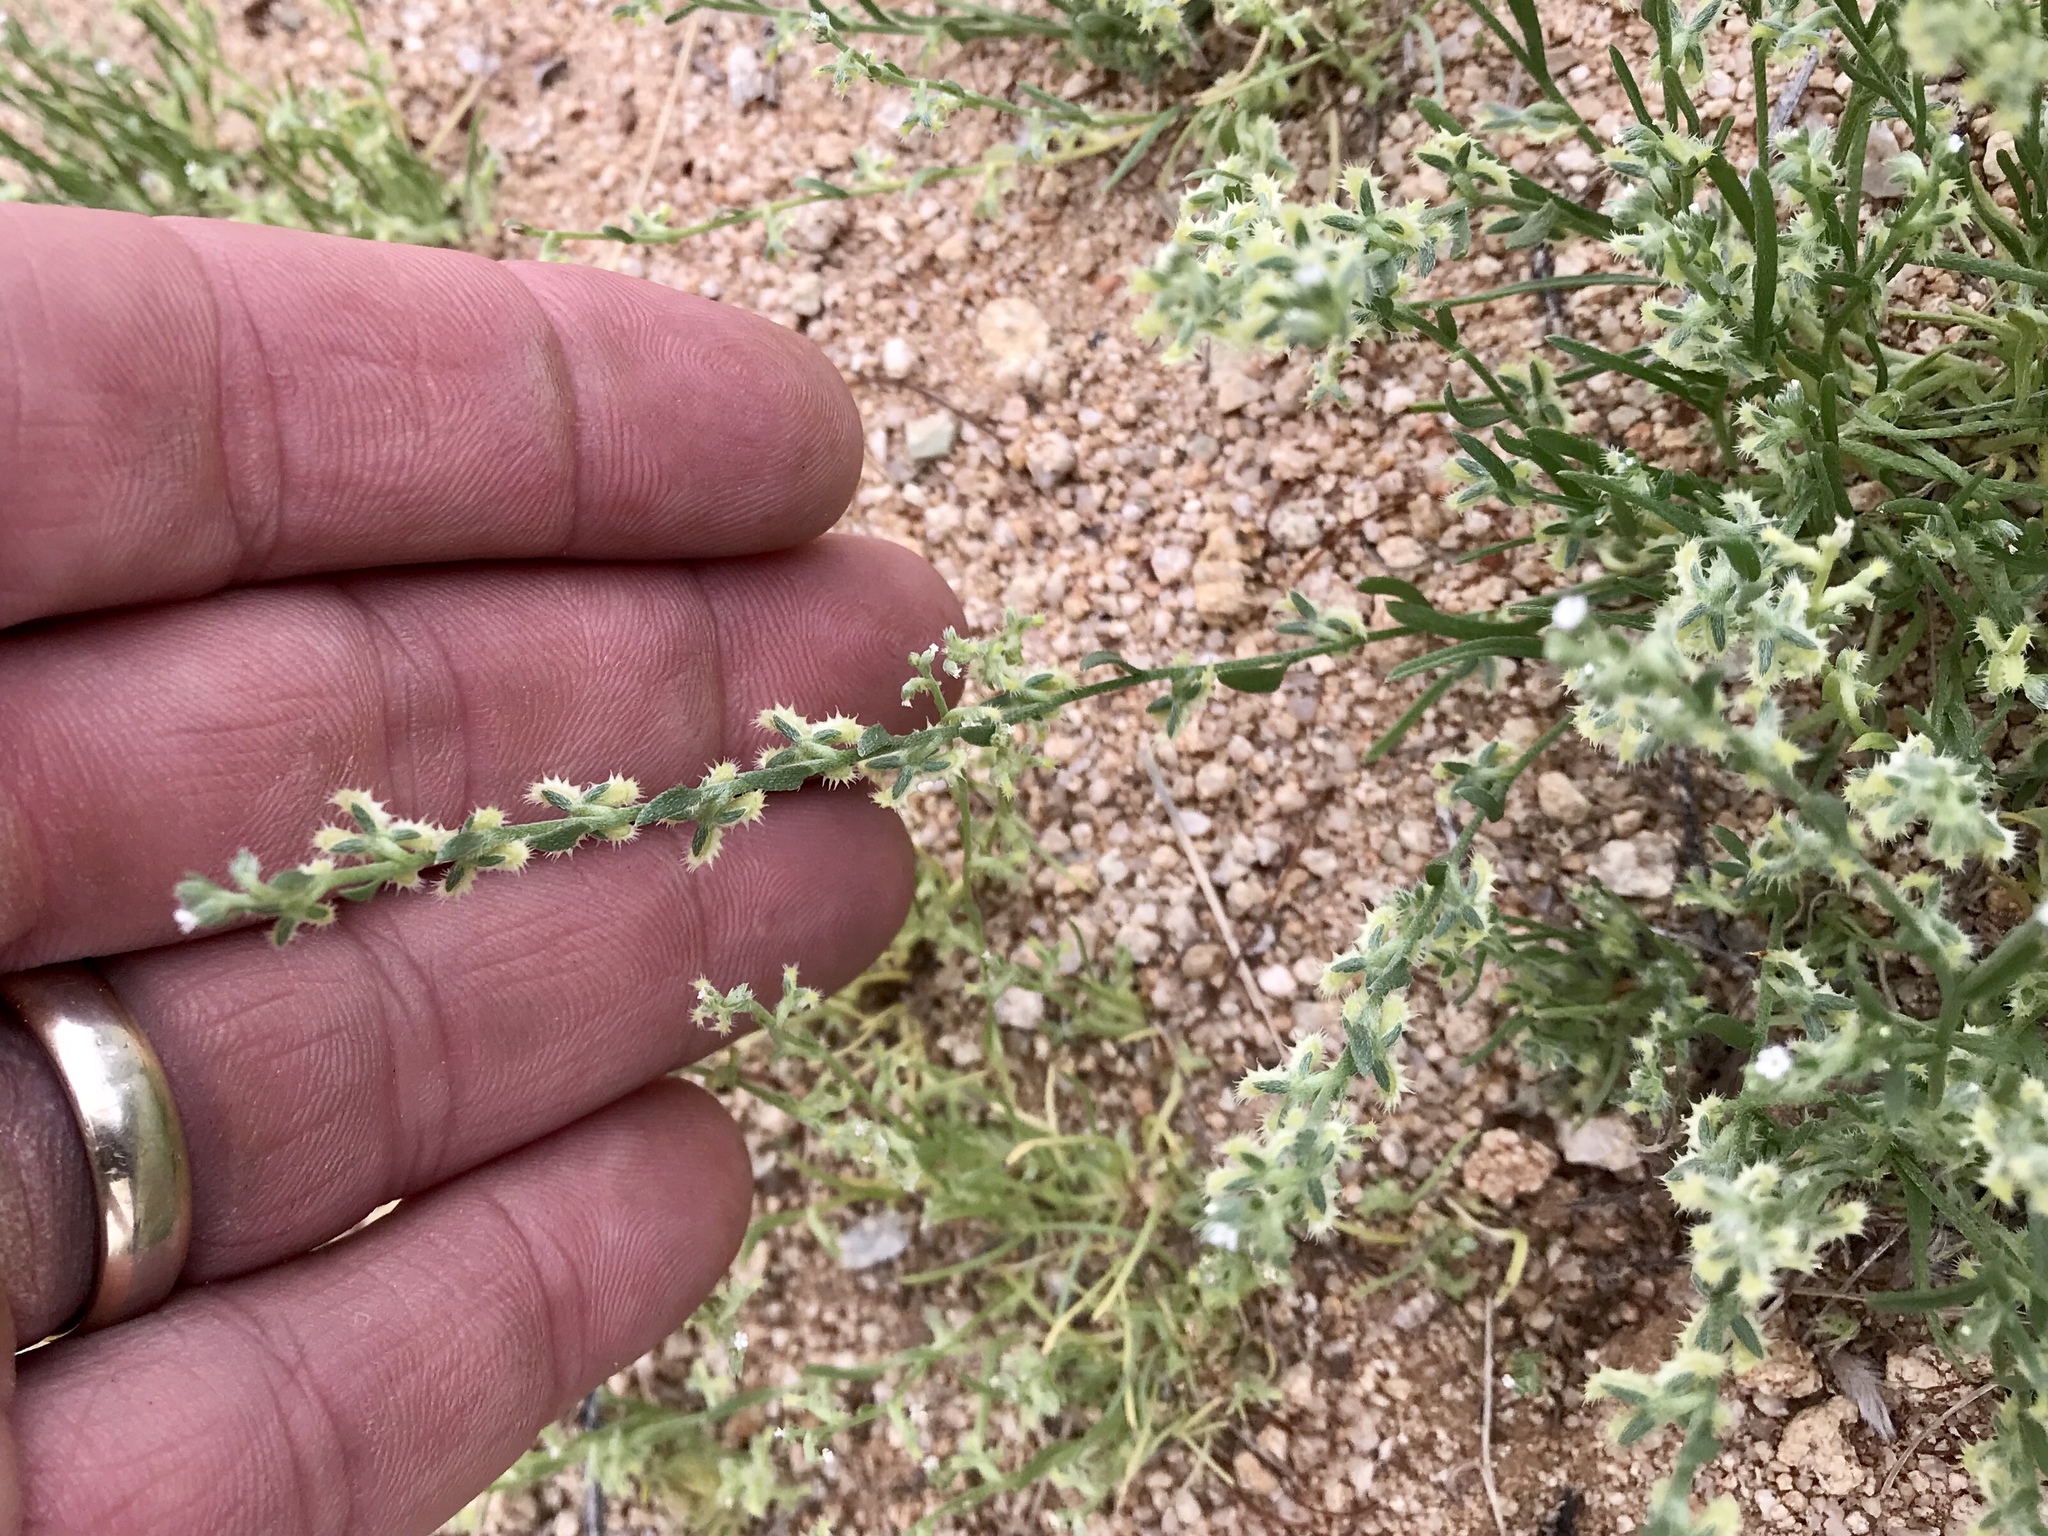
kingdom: Plantae
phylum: Tracheophyta
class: Magnoliopsida
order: Boraginales
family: Boraginaceae
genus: Pectocarya
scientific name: Pectocarya platycarpa
